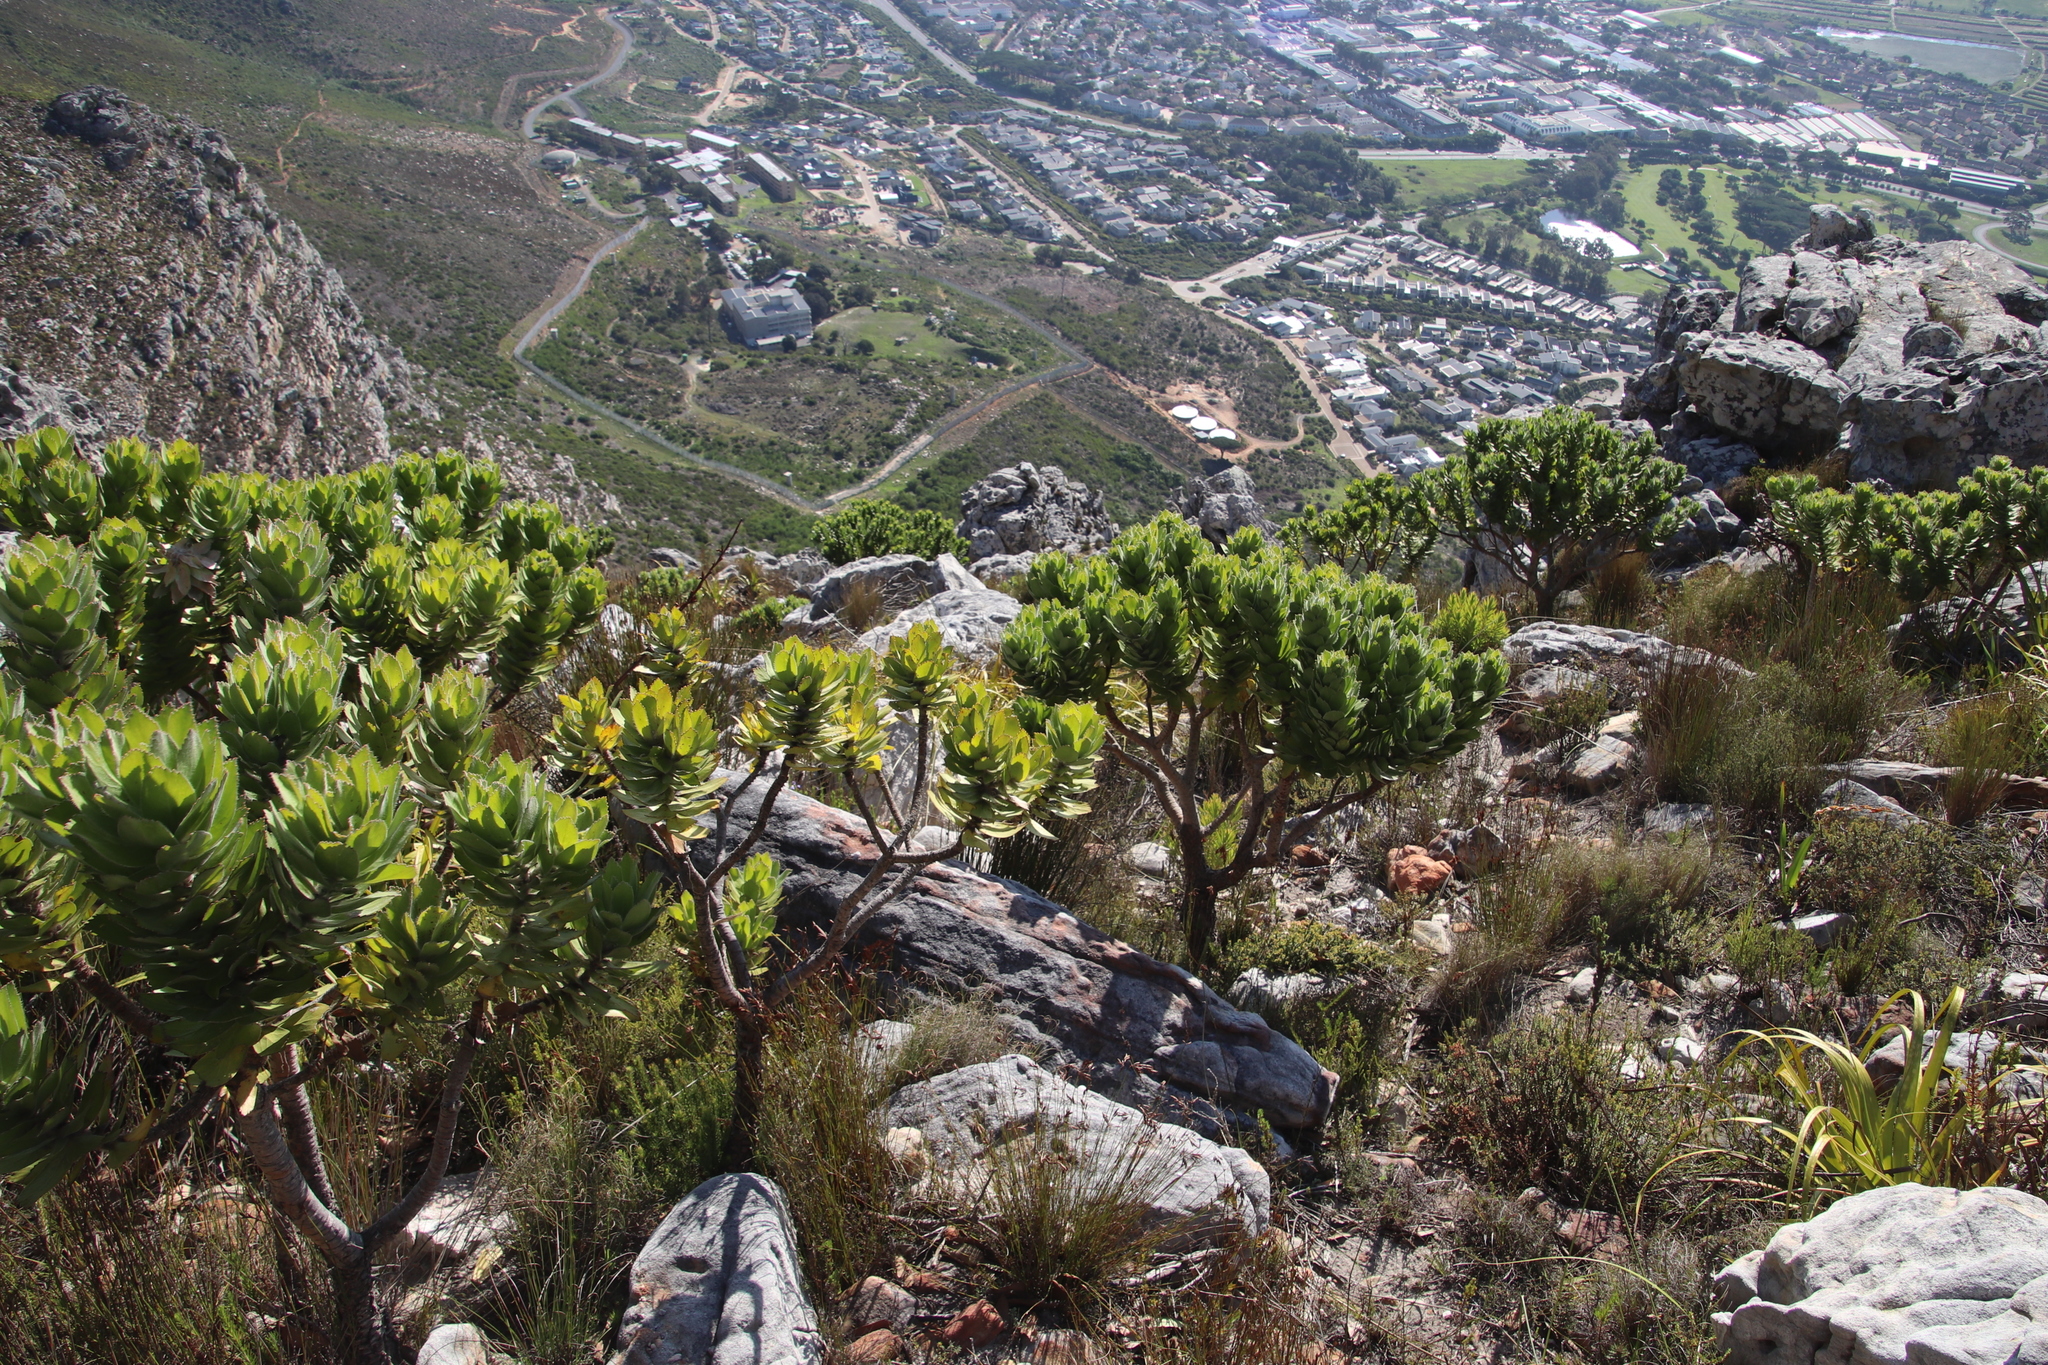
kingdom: Plantae
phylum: Tracheophyta
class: Magnoliopsida
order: Proteales
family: Proteaceae
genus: Leucospermum
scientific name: Leucospermum conocarpodendron
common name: Tree pincushion
